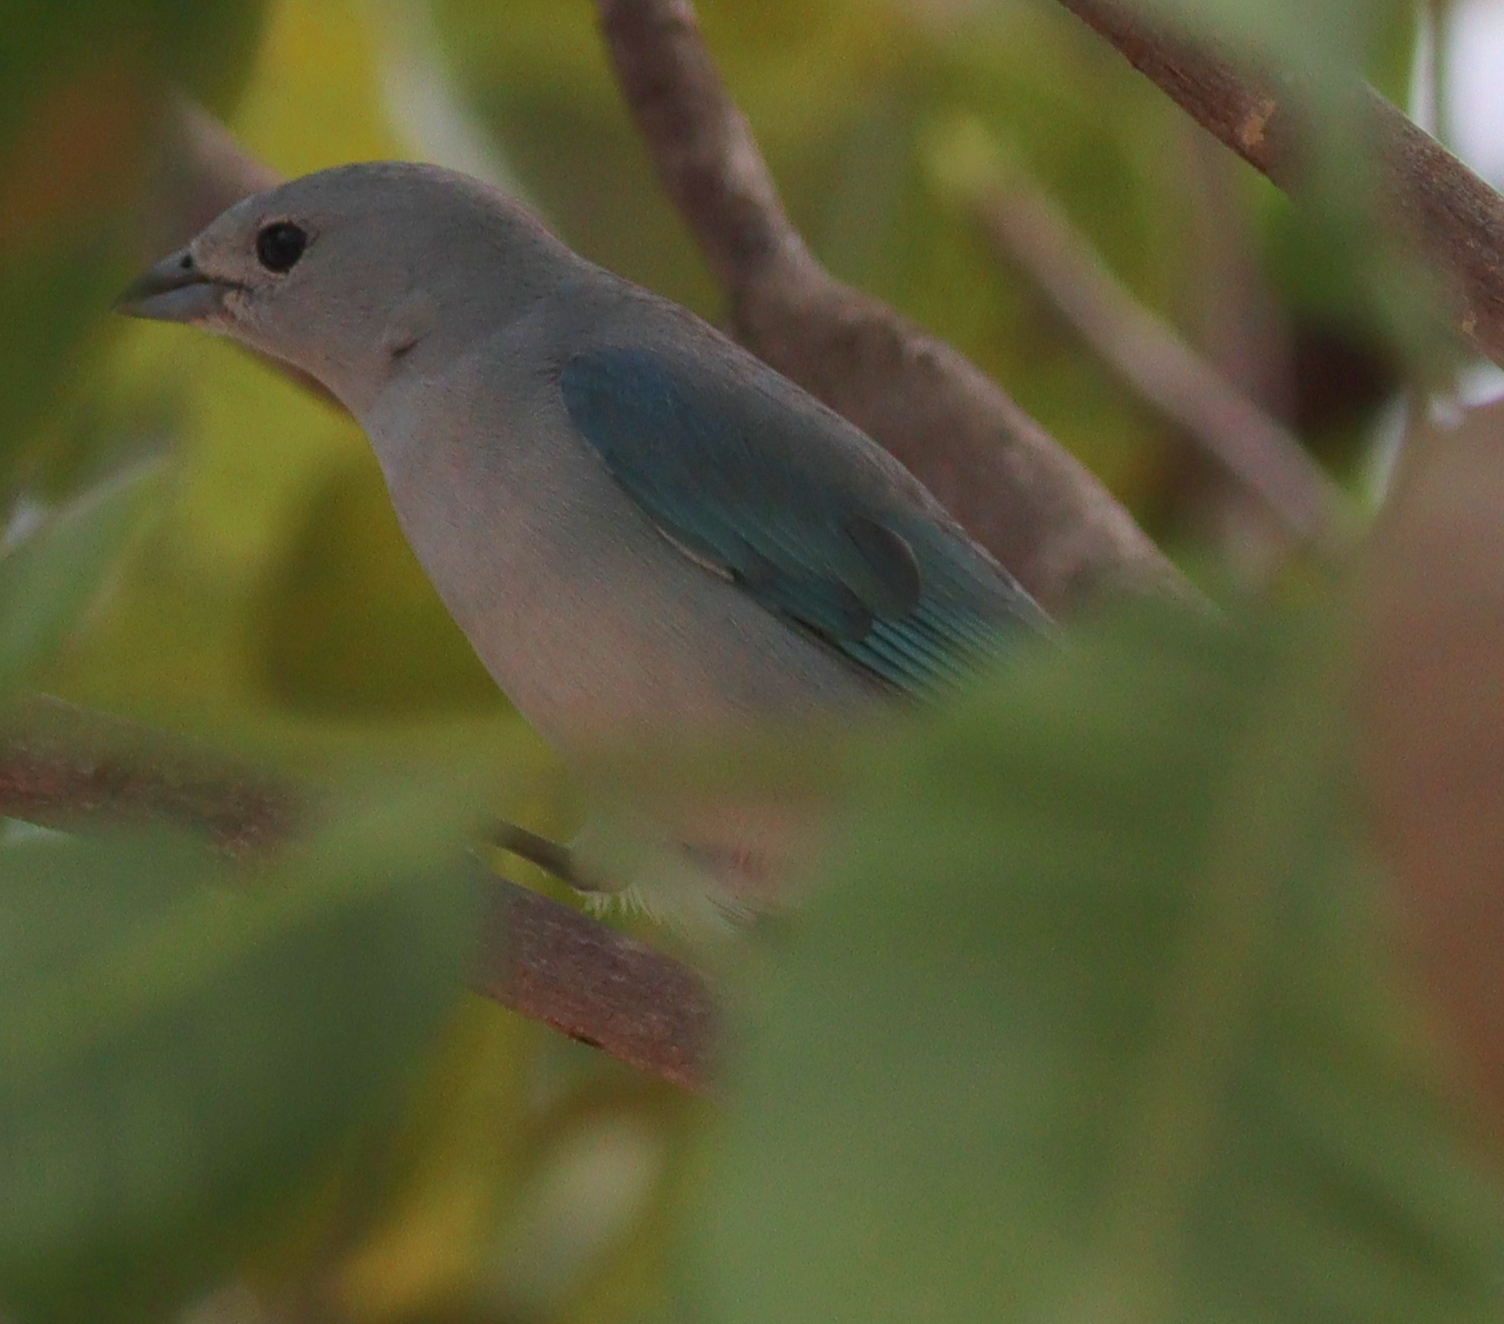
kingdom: Animalia
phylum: Chordata
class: Aves
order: Passeriformes
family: Thraupidae
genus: Thraupis
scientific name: Thraupis sayaca
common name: Sayaca tanager
